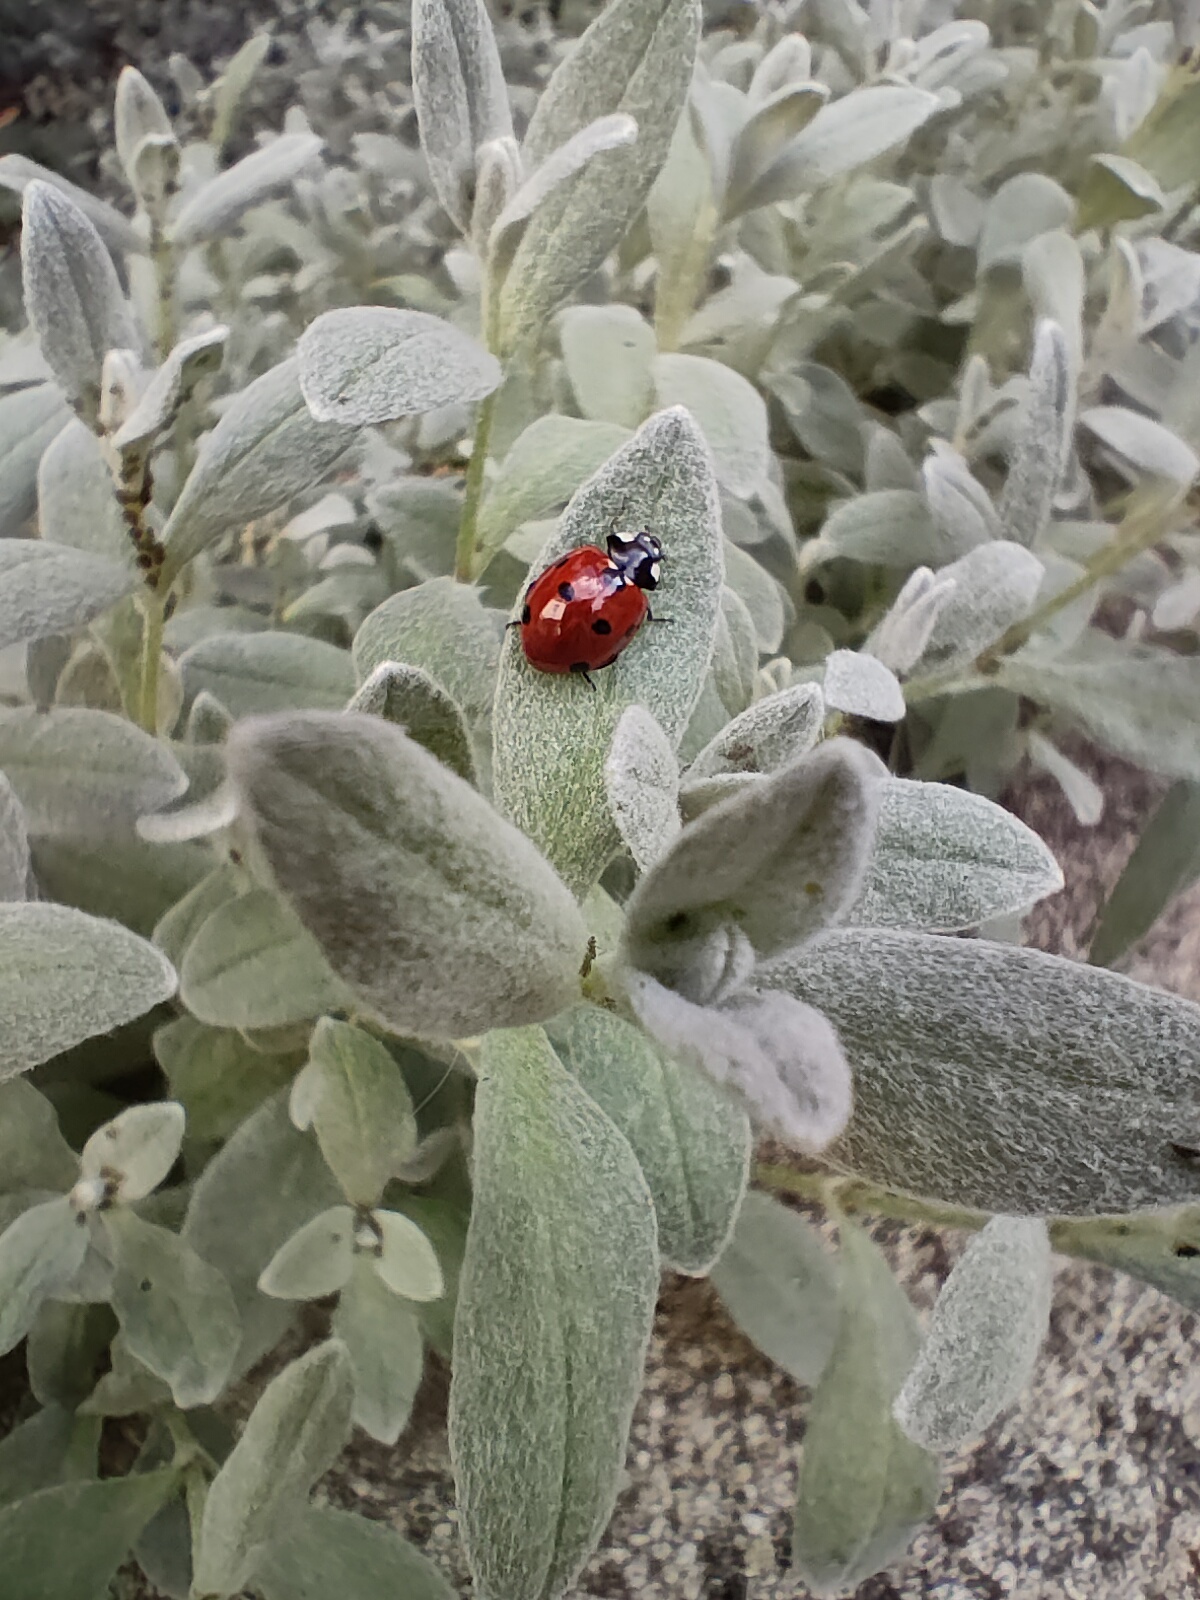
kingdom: Animalia
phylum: Arthropoda
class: Insecta
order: Coleoptera
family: Coccinellidae
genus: Coccinella
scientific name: Coccinella septempunctata
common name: Sevenspotted lady beetle
